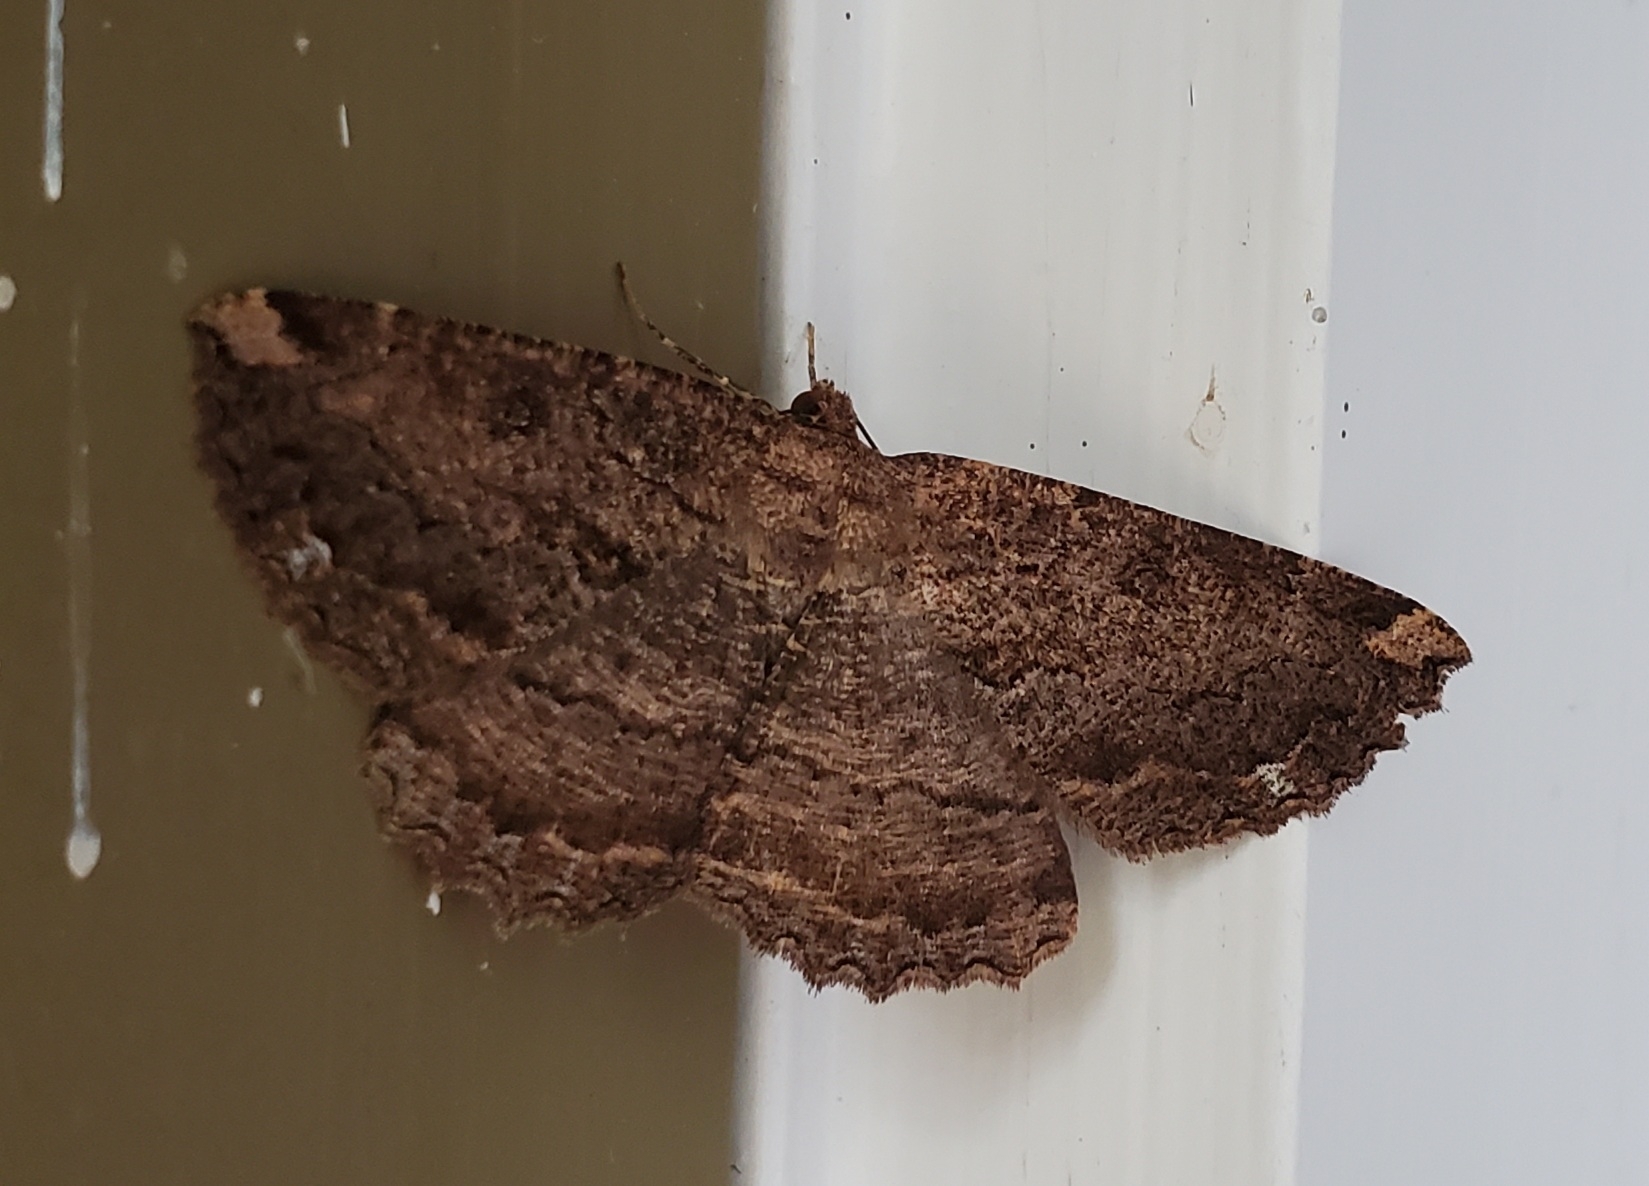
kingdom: Animalia
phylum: Arthropoda
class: Insecta
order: Lepidoptera
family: Geometridae
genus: Gellonia
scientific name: Gellonia dejectaria
